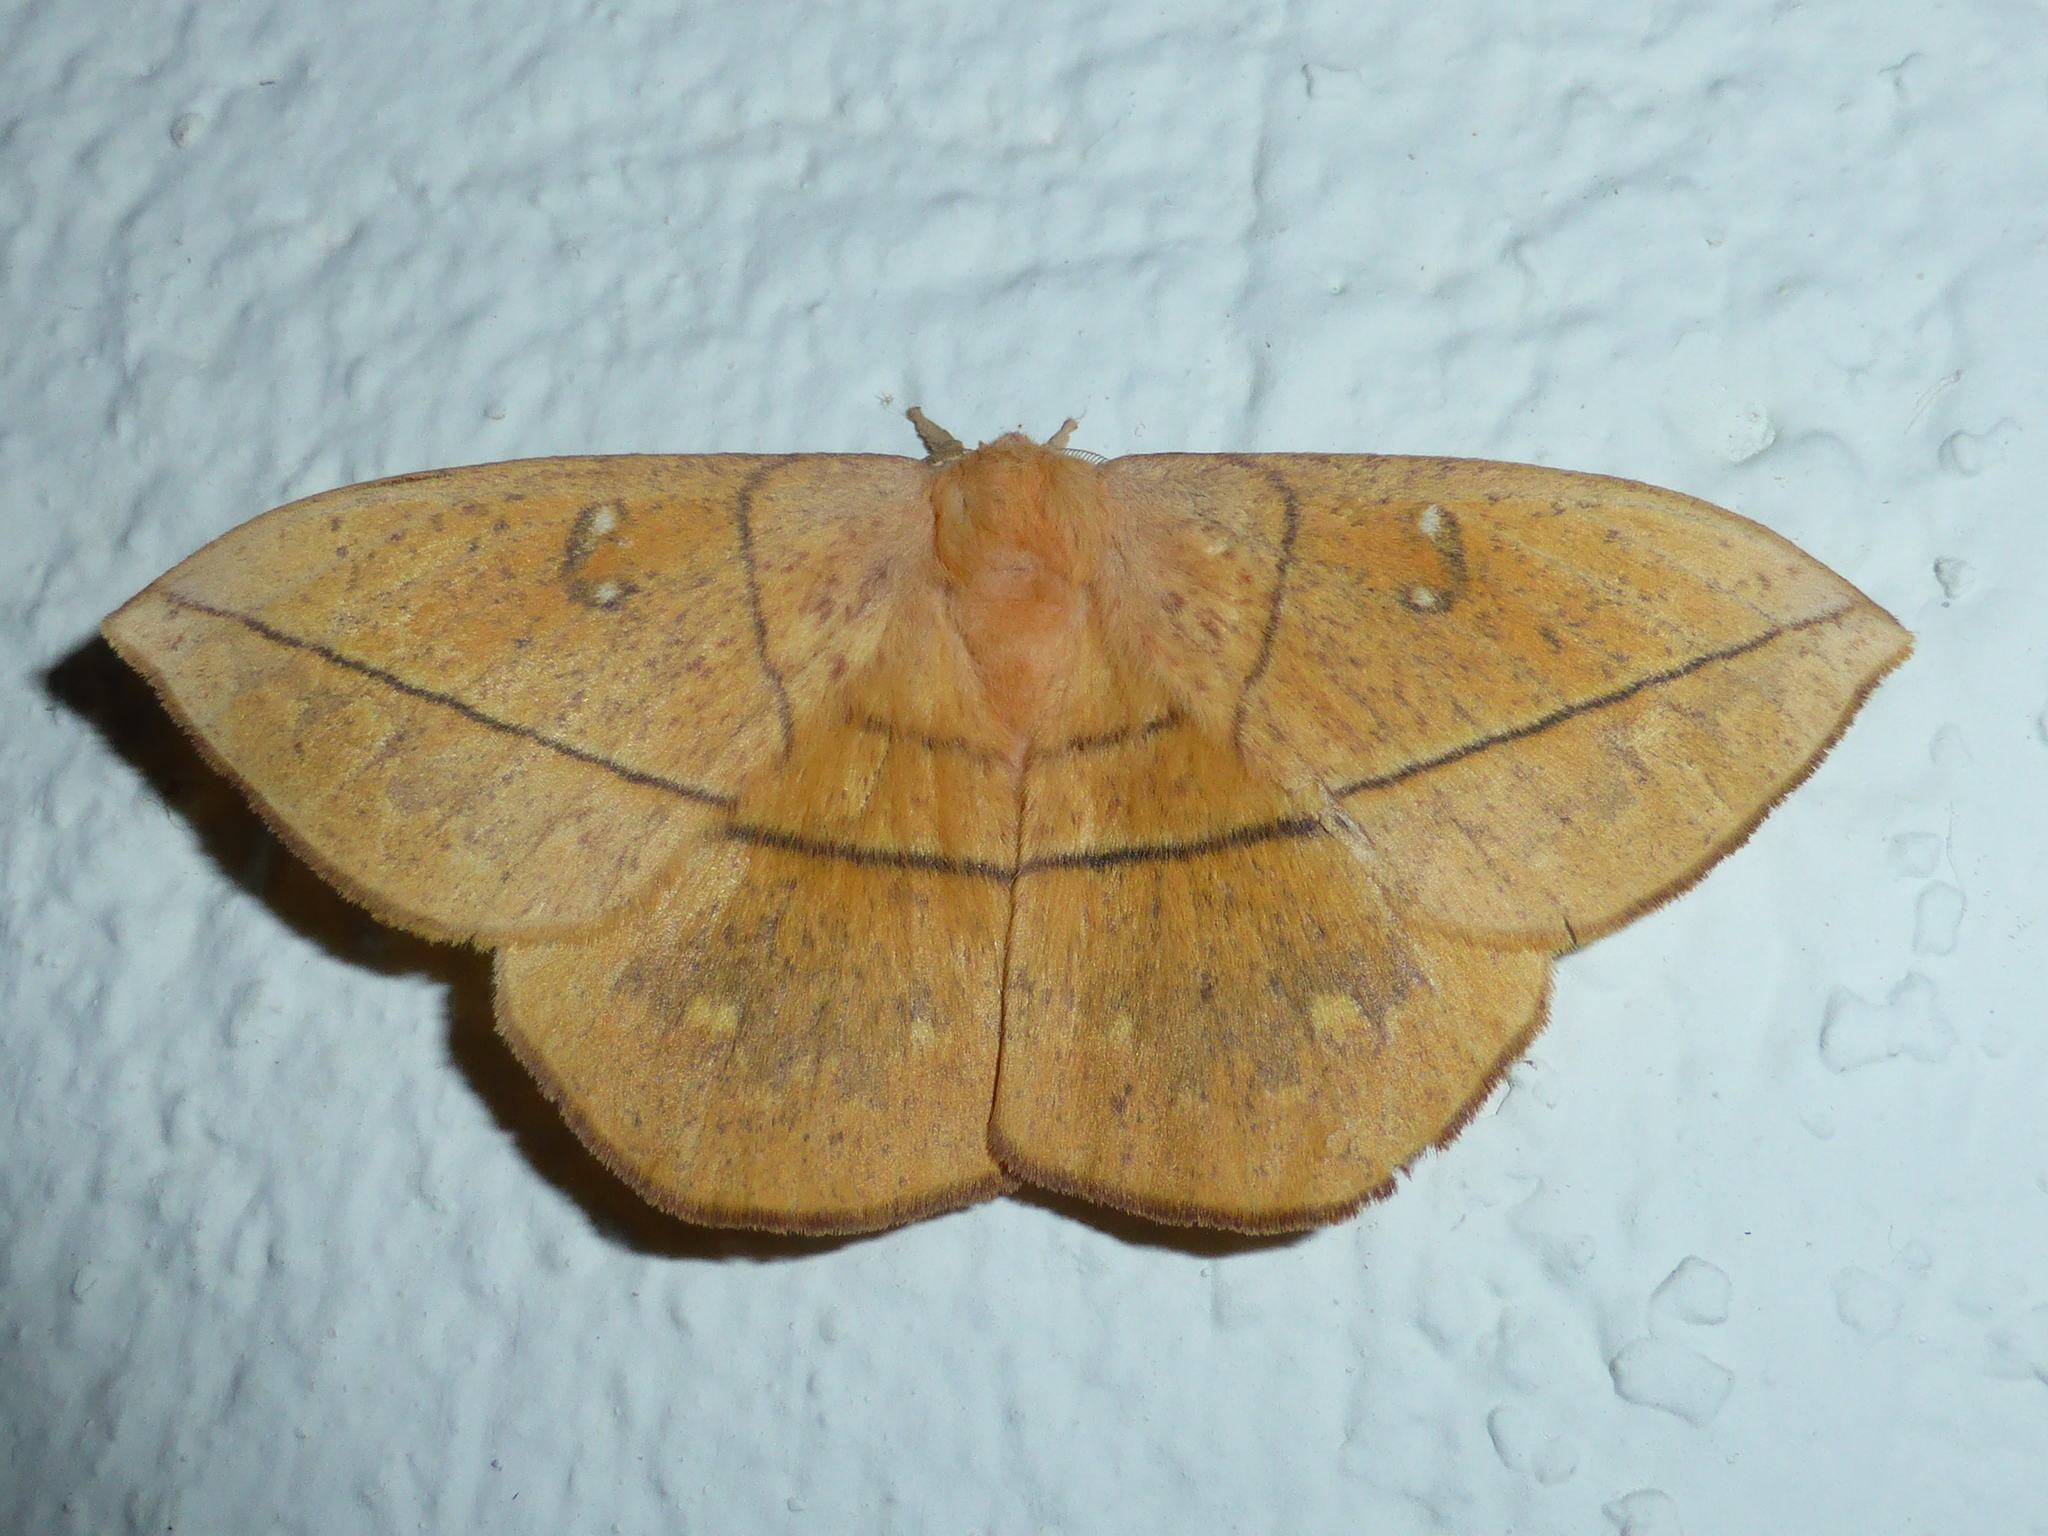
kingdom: Animalia
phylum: Arthropoda
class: Insecta
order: Lepidoptera
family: Saturniidae
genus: Periga
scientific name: Periga aurantiaca
